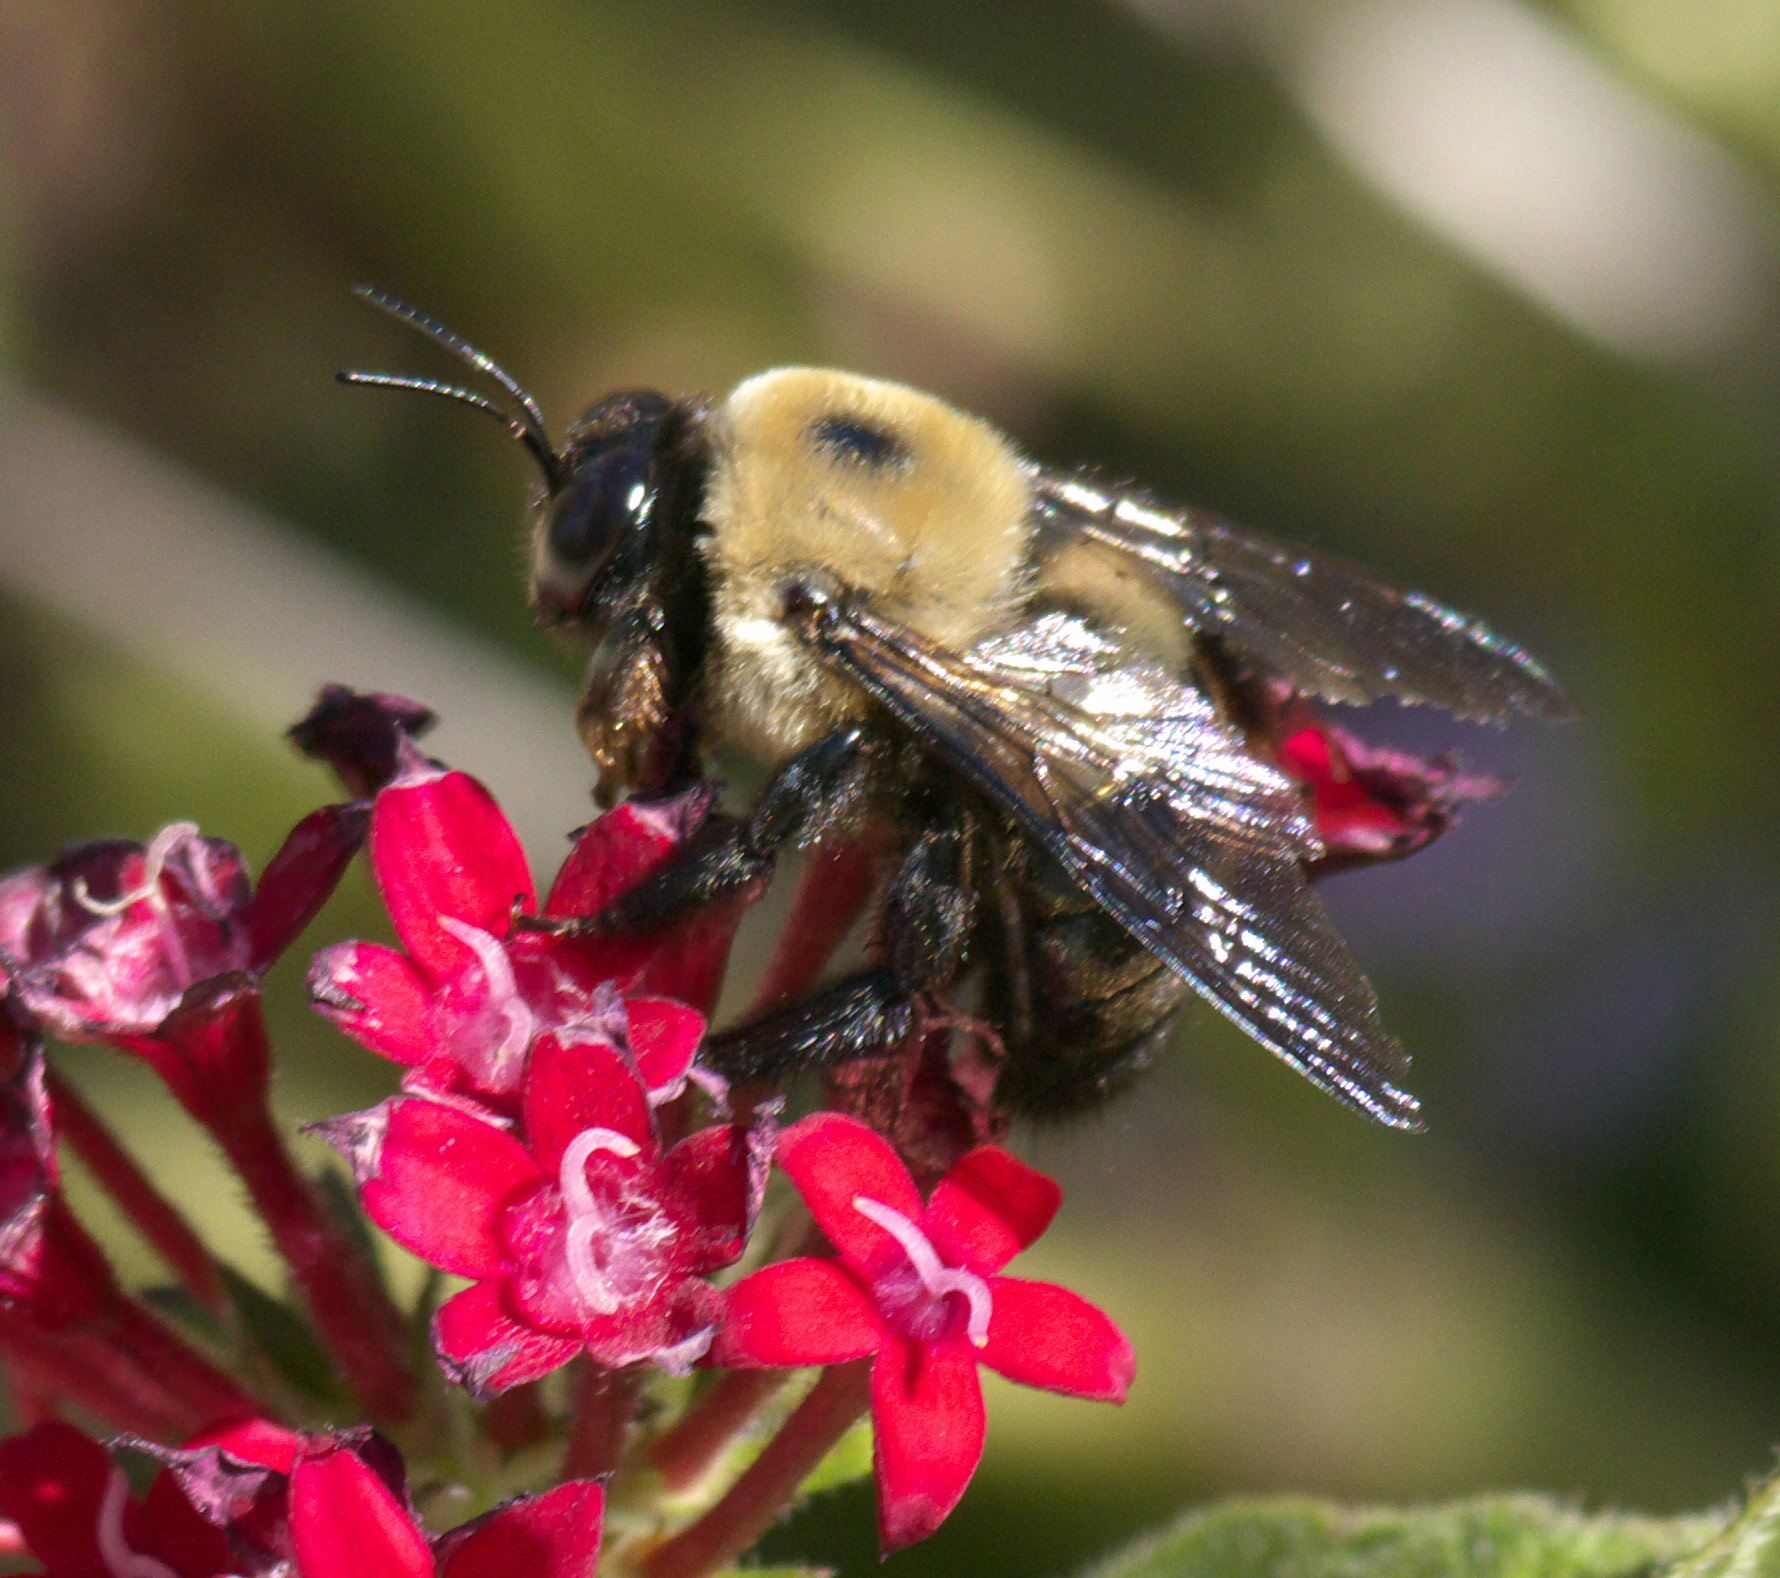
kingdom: Animalia
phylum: Arthropoda
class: Insecta
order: Hymenoptera
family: Apidae
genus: Xylocopa
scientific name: Xylocopa virginica
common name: Carpenter bee
